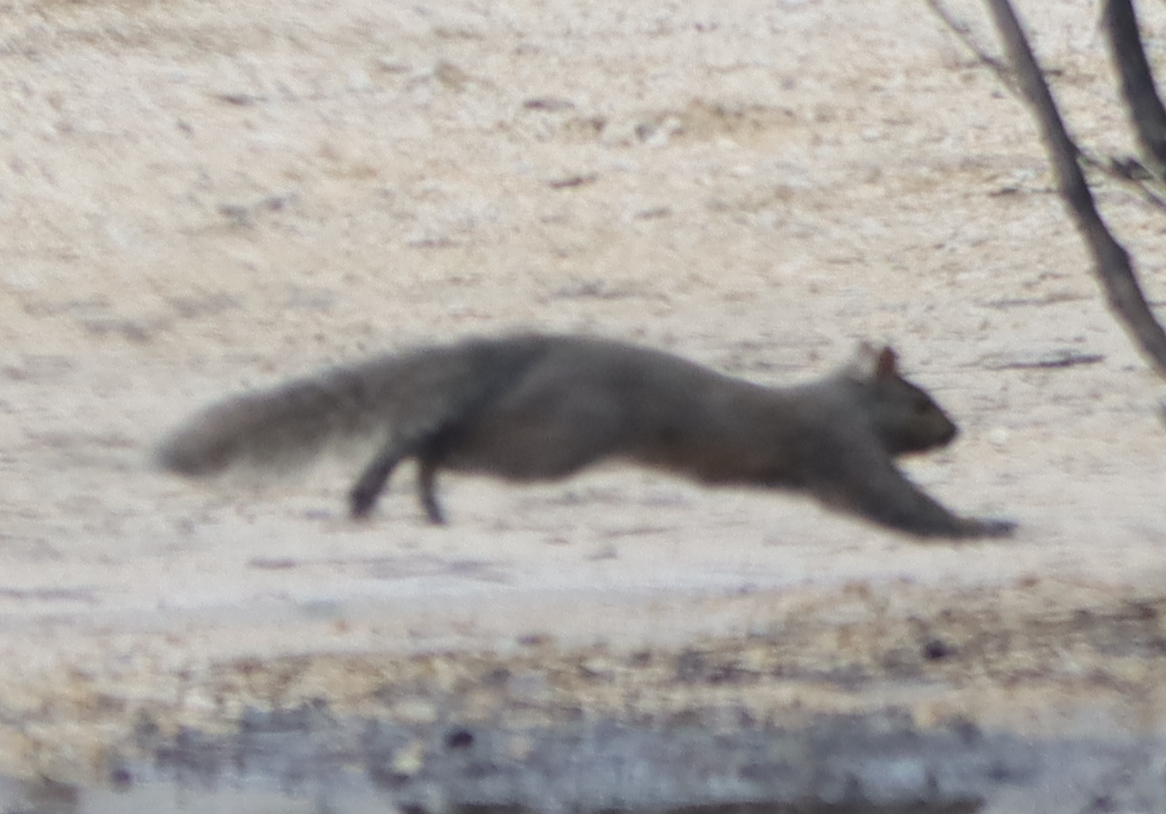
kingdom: Animalia
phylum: Chordata
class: Mammalia
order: Rodentia
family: Sciuridae
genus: Sciurus
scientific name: Sciurus carolinensis
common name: Eastern gray squirrel
